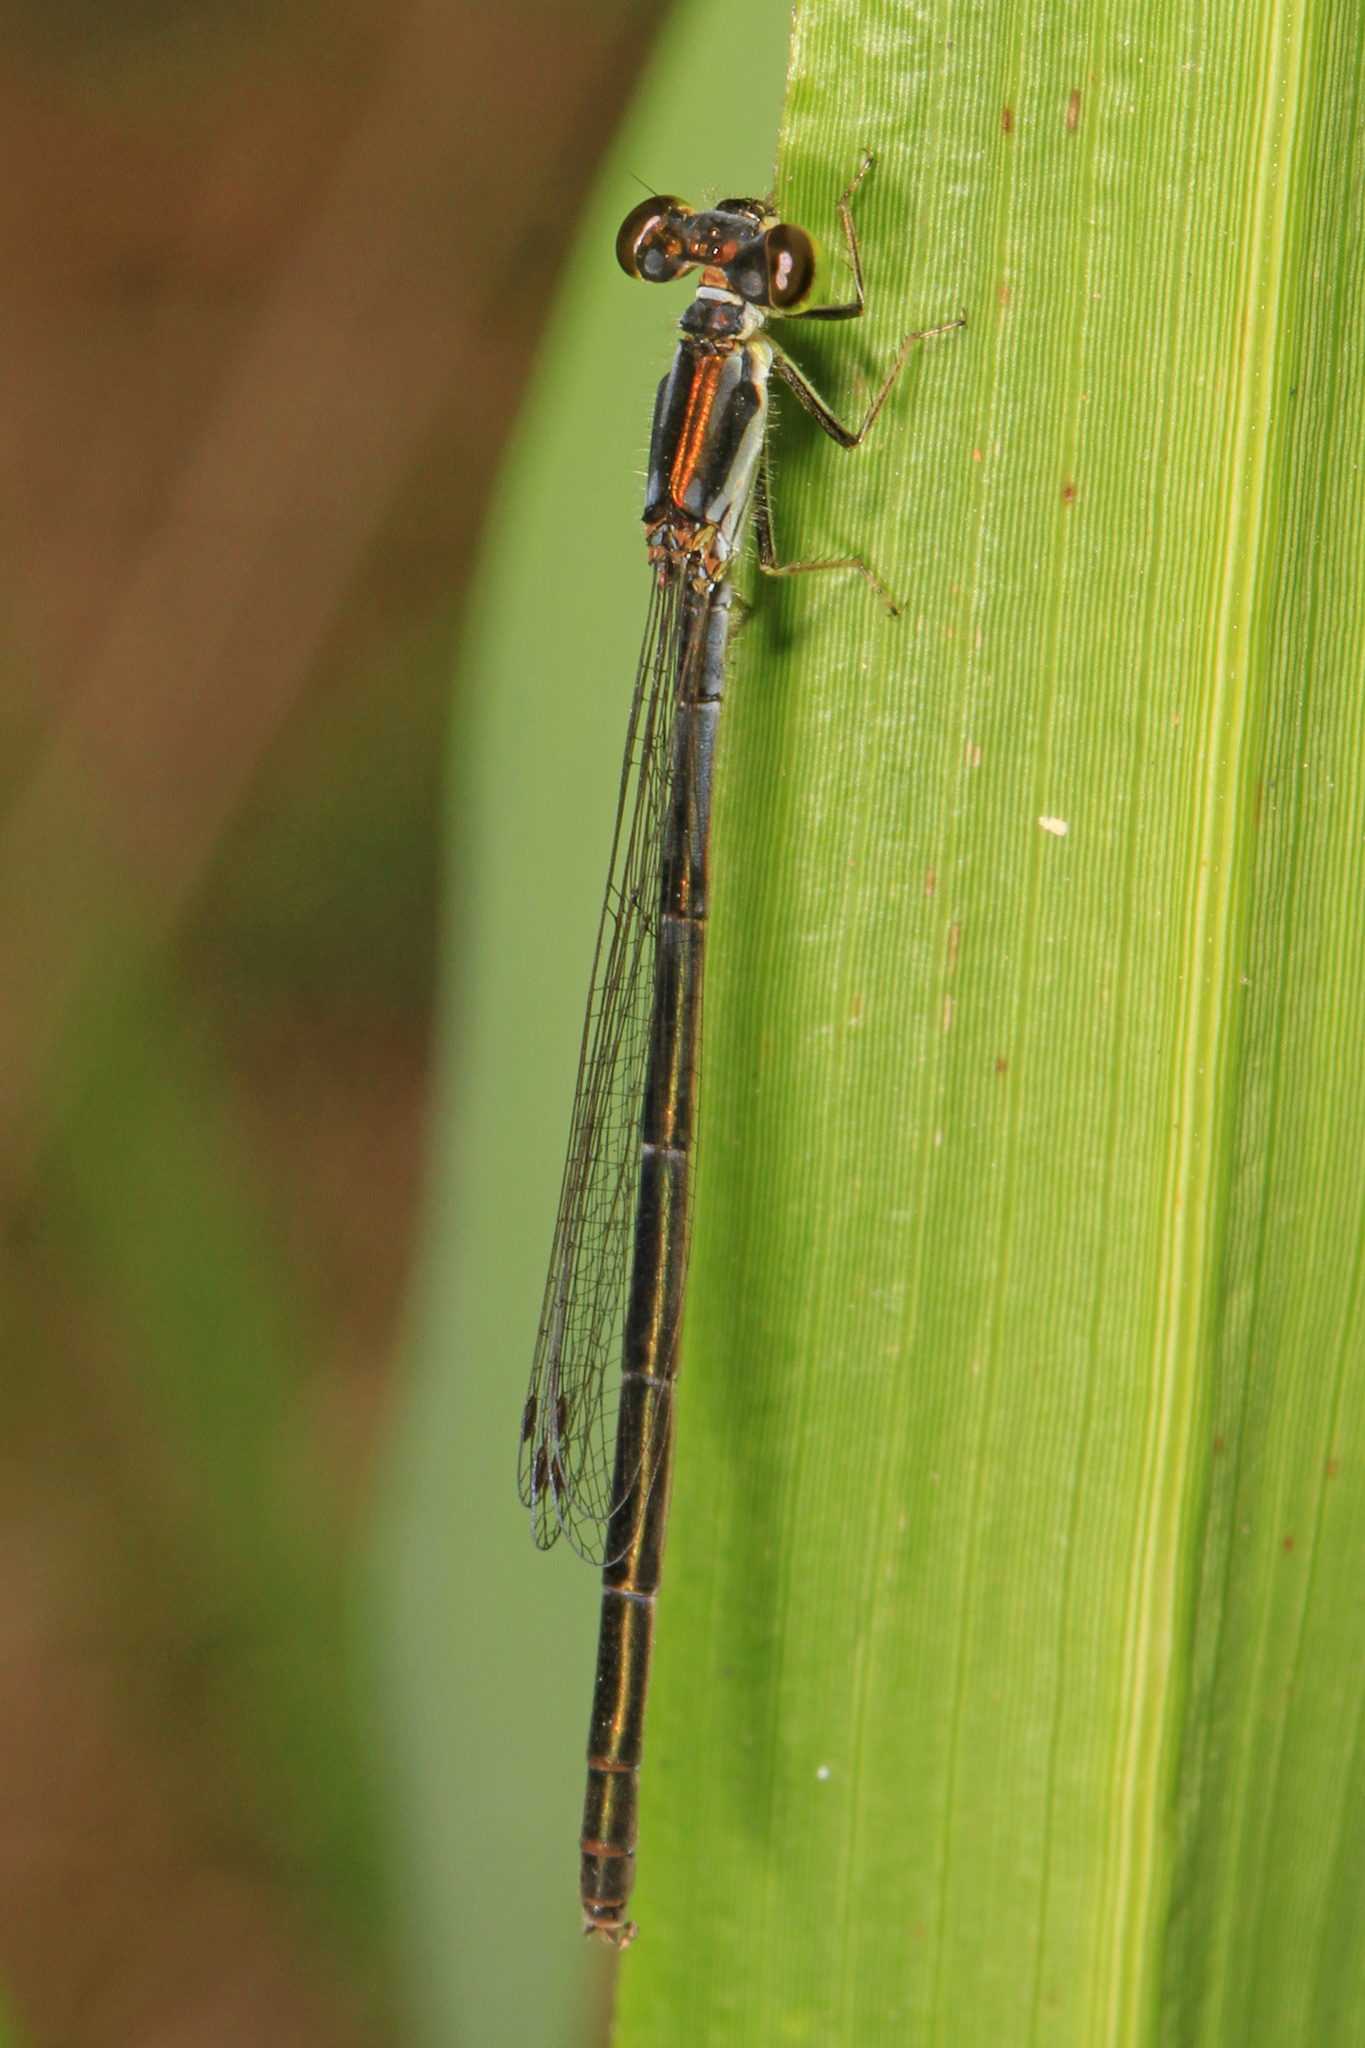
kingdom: Animalia
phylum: Arthropoda
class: Insecta
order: Odonata
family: Coenagrionidae
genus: Ischnura
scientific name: Ischnura posita
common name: Fragile forktail
